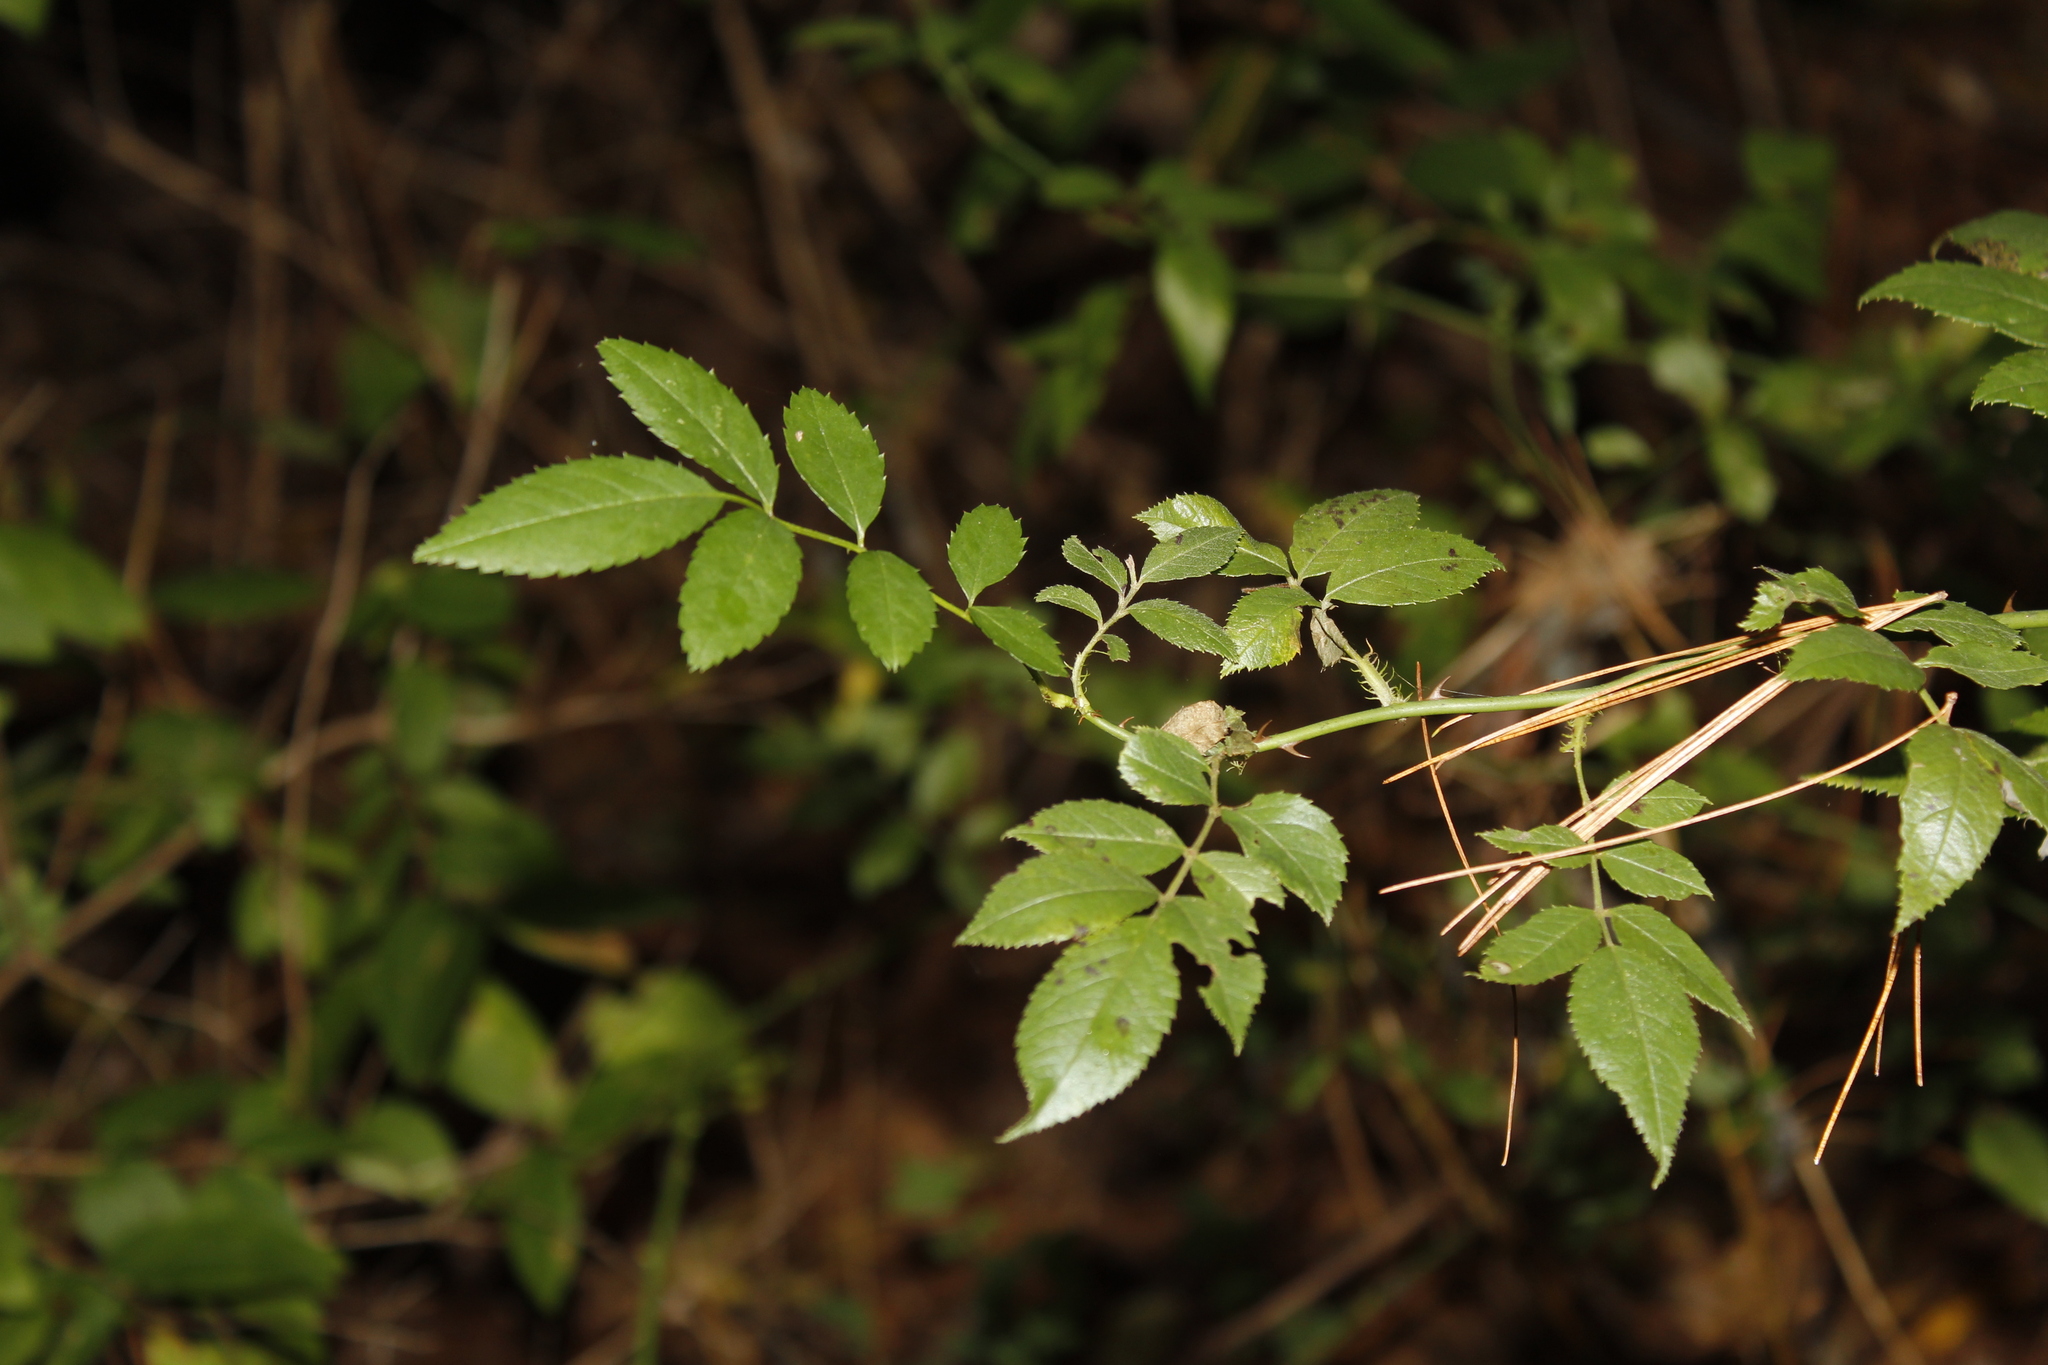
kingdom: Plantae
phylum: Tracheophyta
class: Magnoliopsida
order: Rosales
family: Rosaceae
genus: Rosa
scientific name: Rosa multiflora
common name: Multiflora rose
